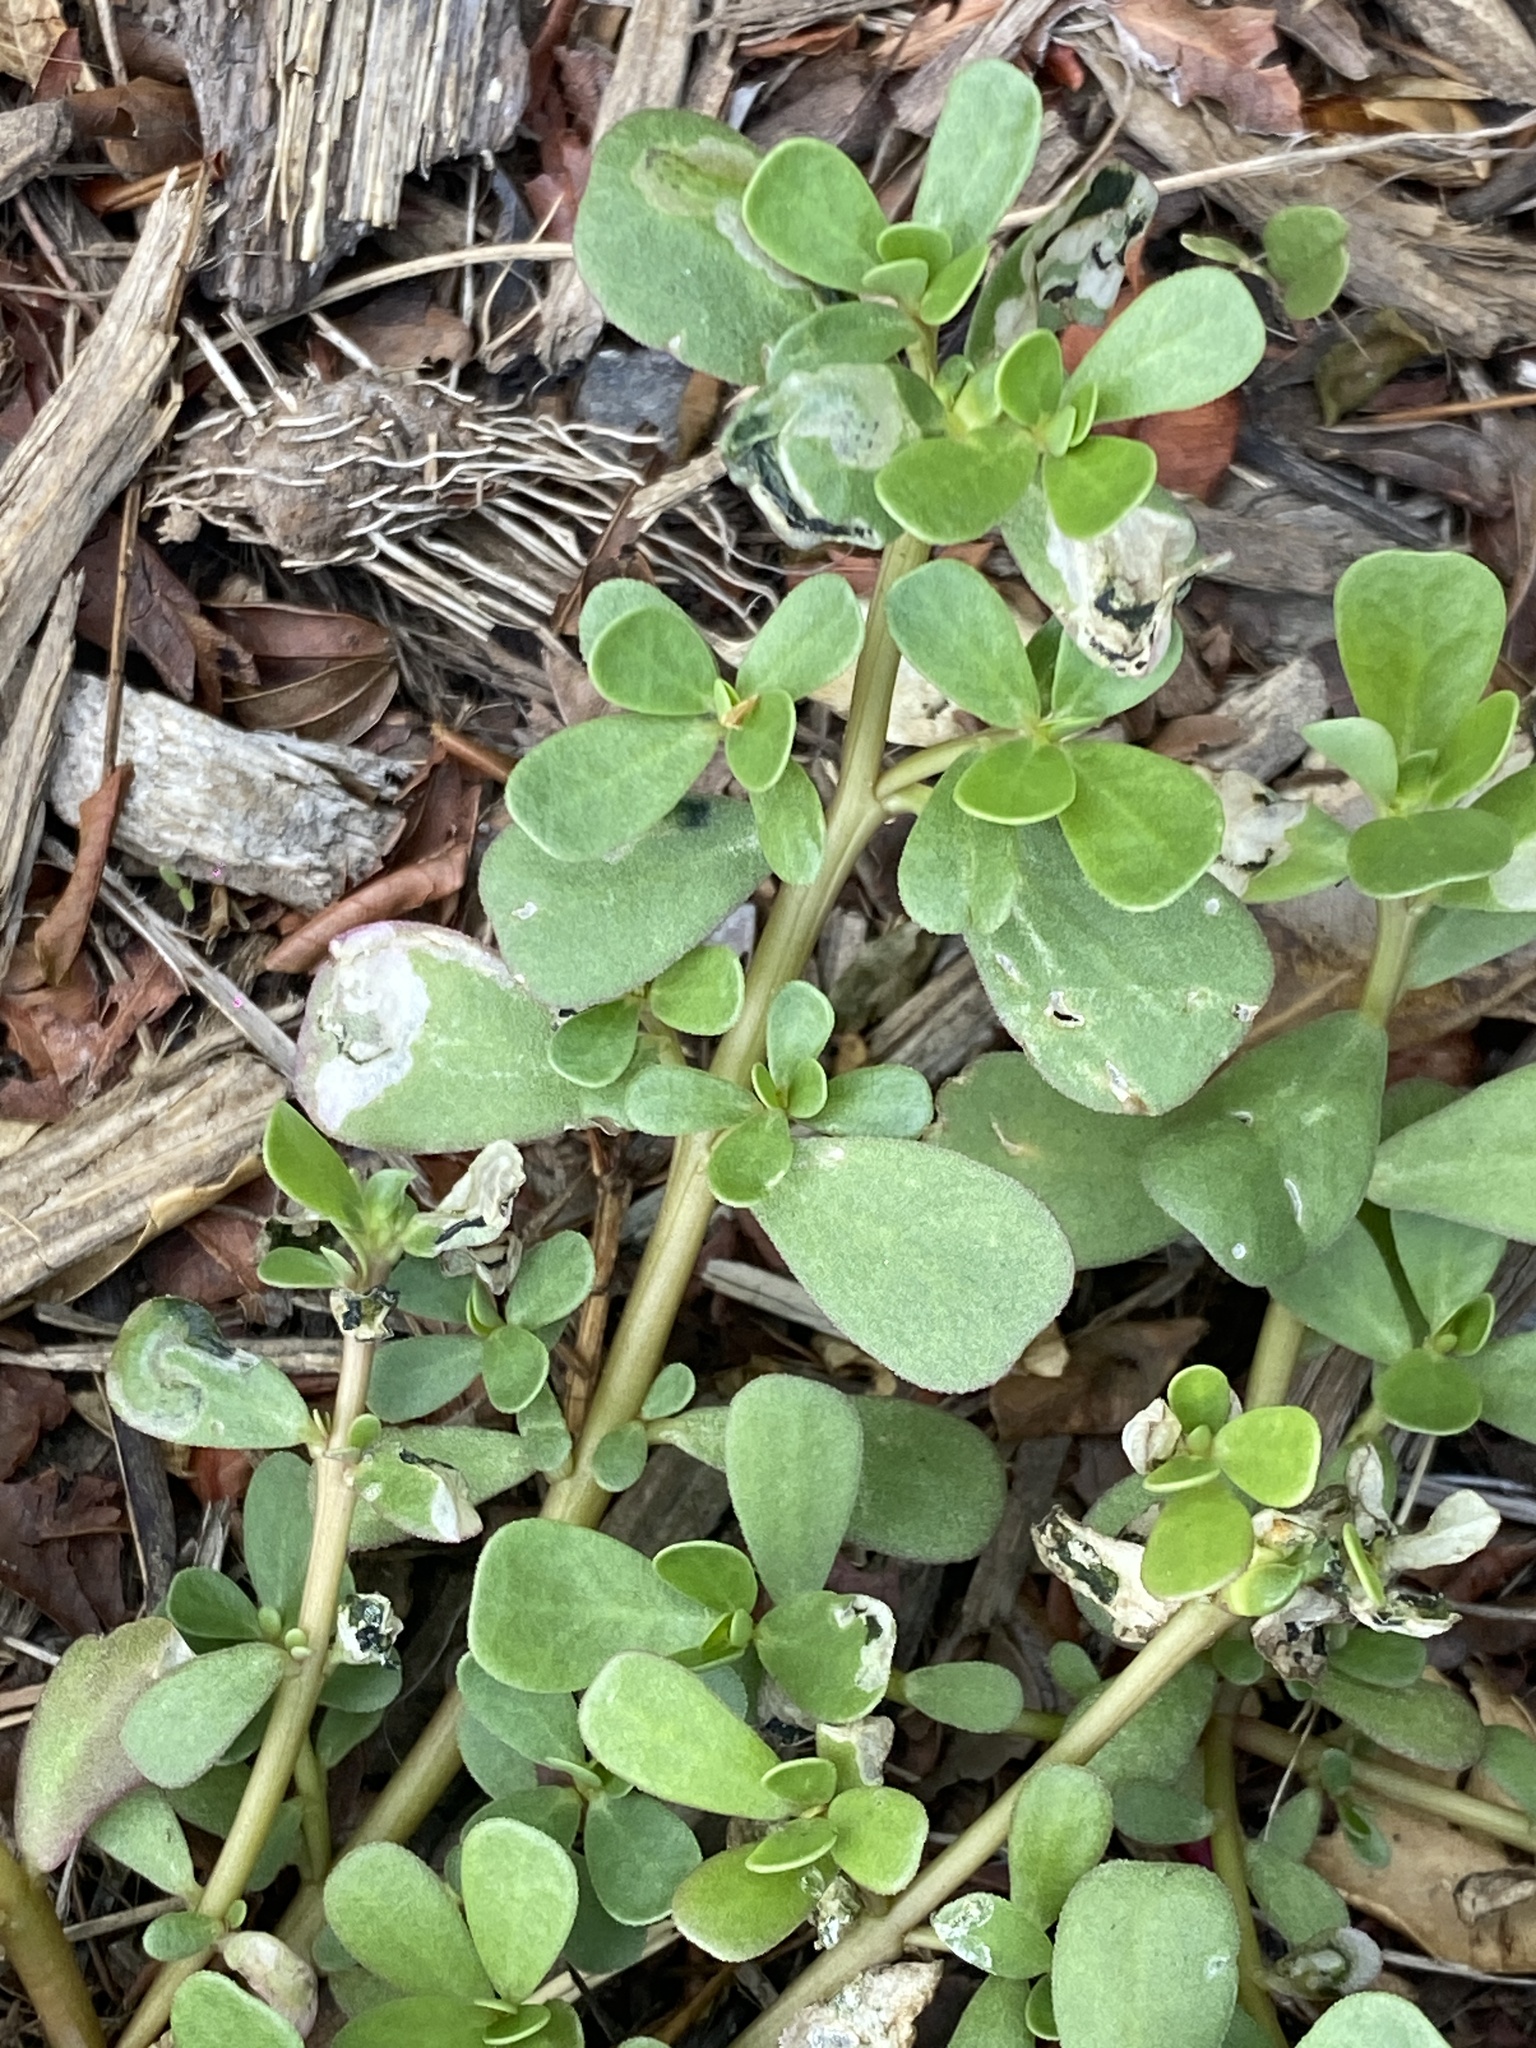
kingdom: Plantae
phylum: Tracheophyta
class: Magnoliopsida
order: Caryophyllales
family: Portulacaceae
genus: Portulaca
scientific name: Portulaca oleracea
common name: Common purslane
